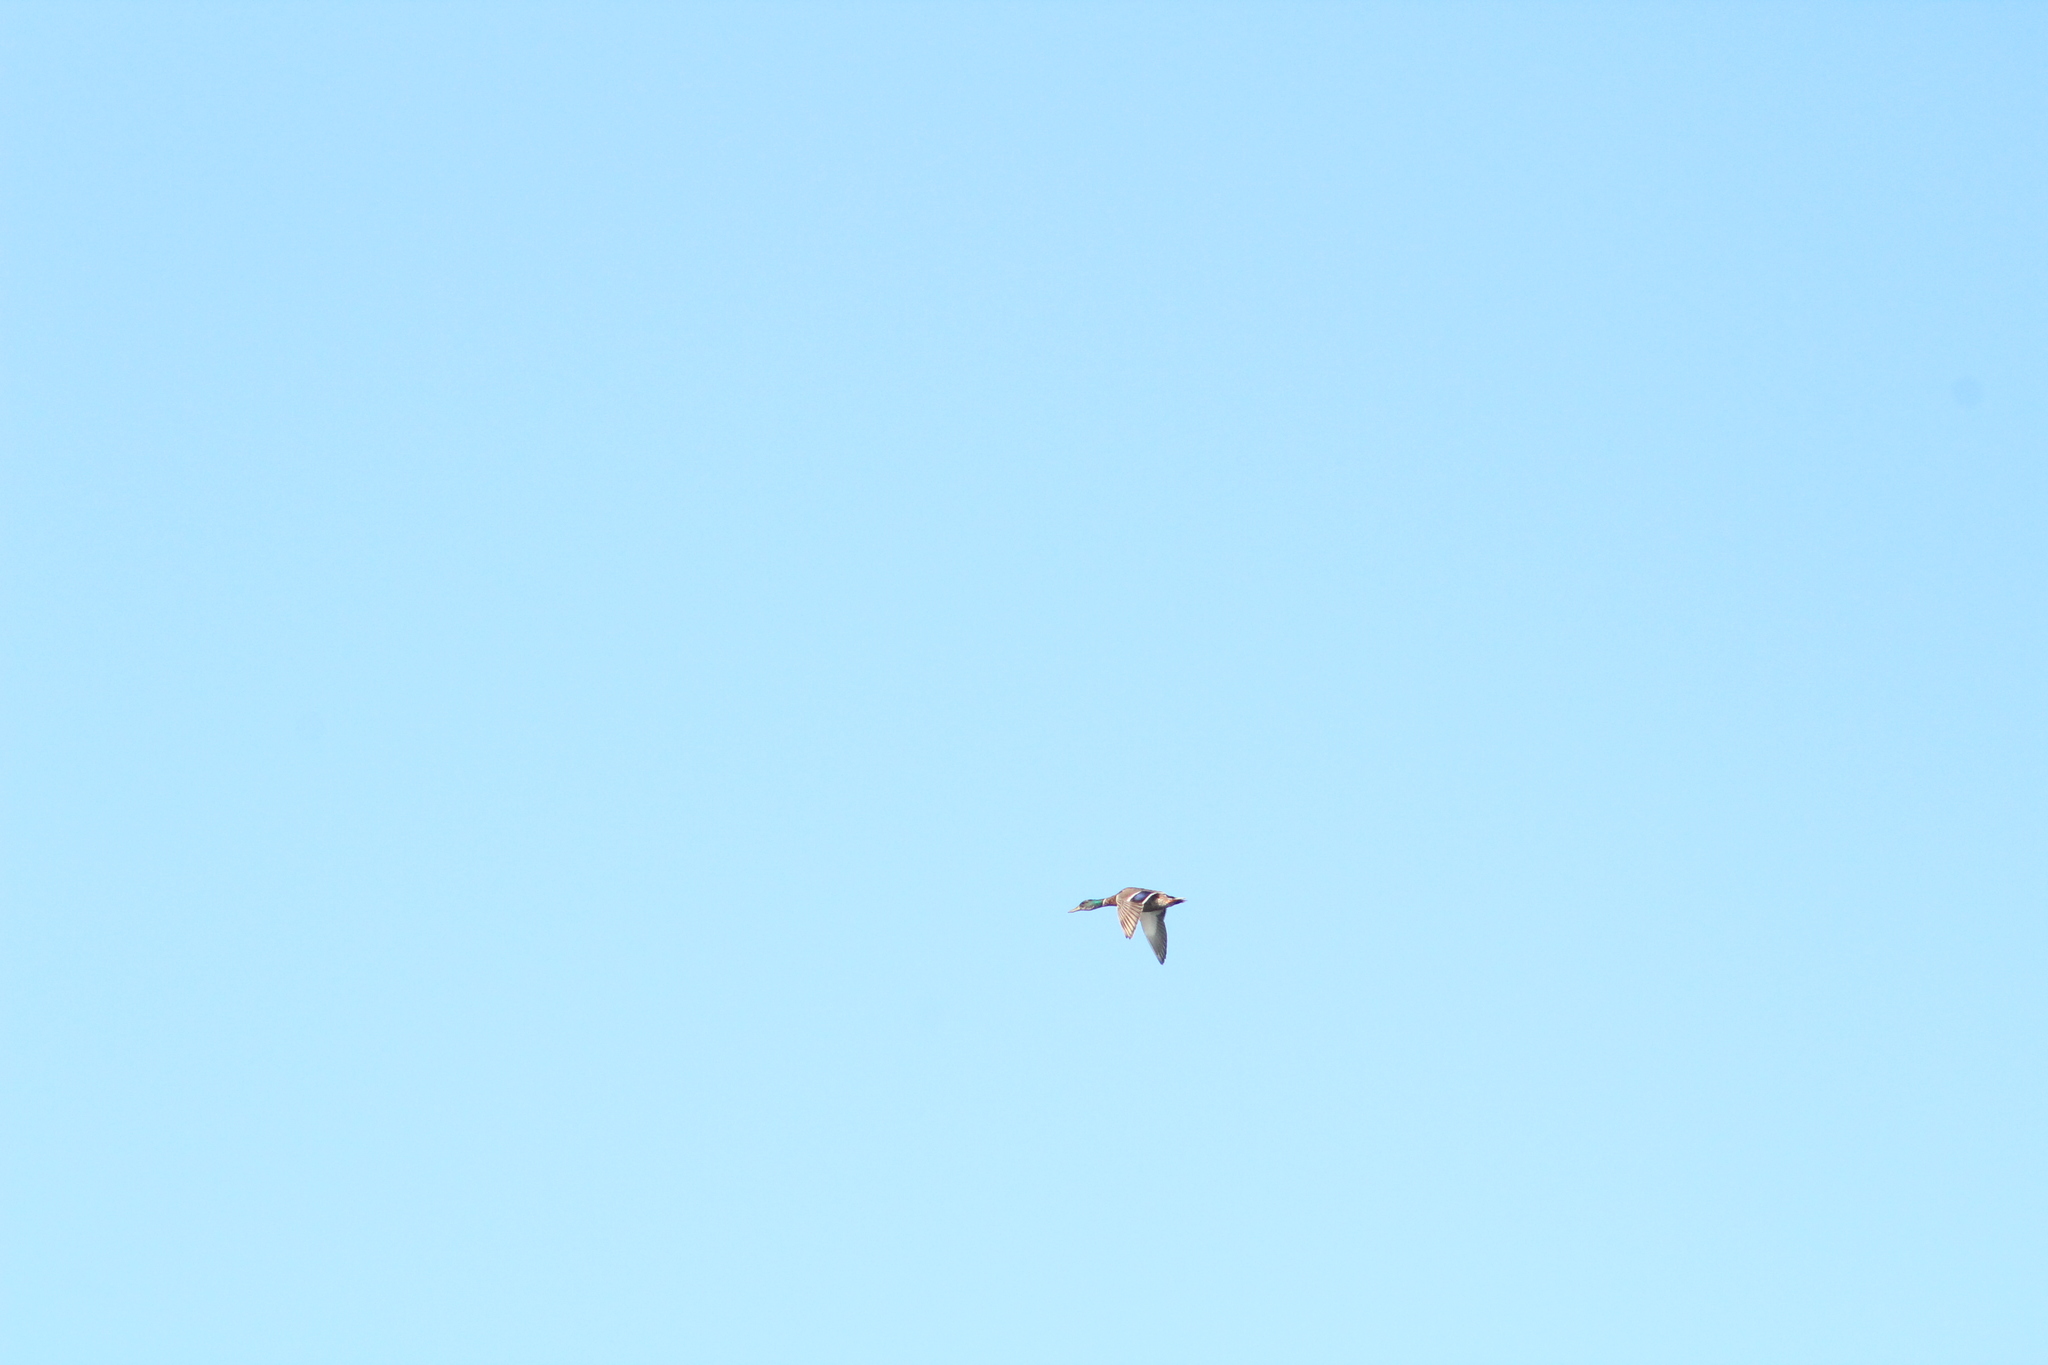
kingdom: Animalia
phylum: Chordata
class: Aves
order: Anseriformes
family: Anatidae
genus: Anas
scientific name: Anas platyrhynchos
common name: Mallard
